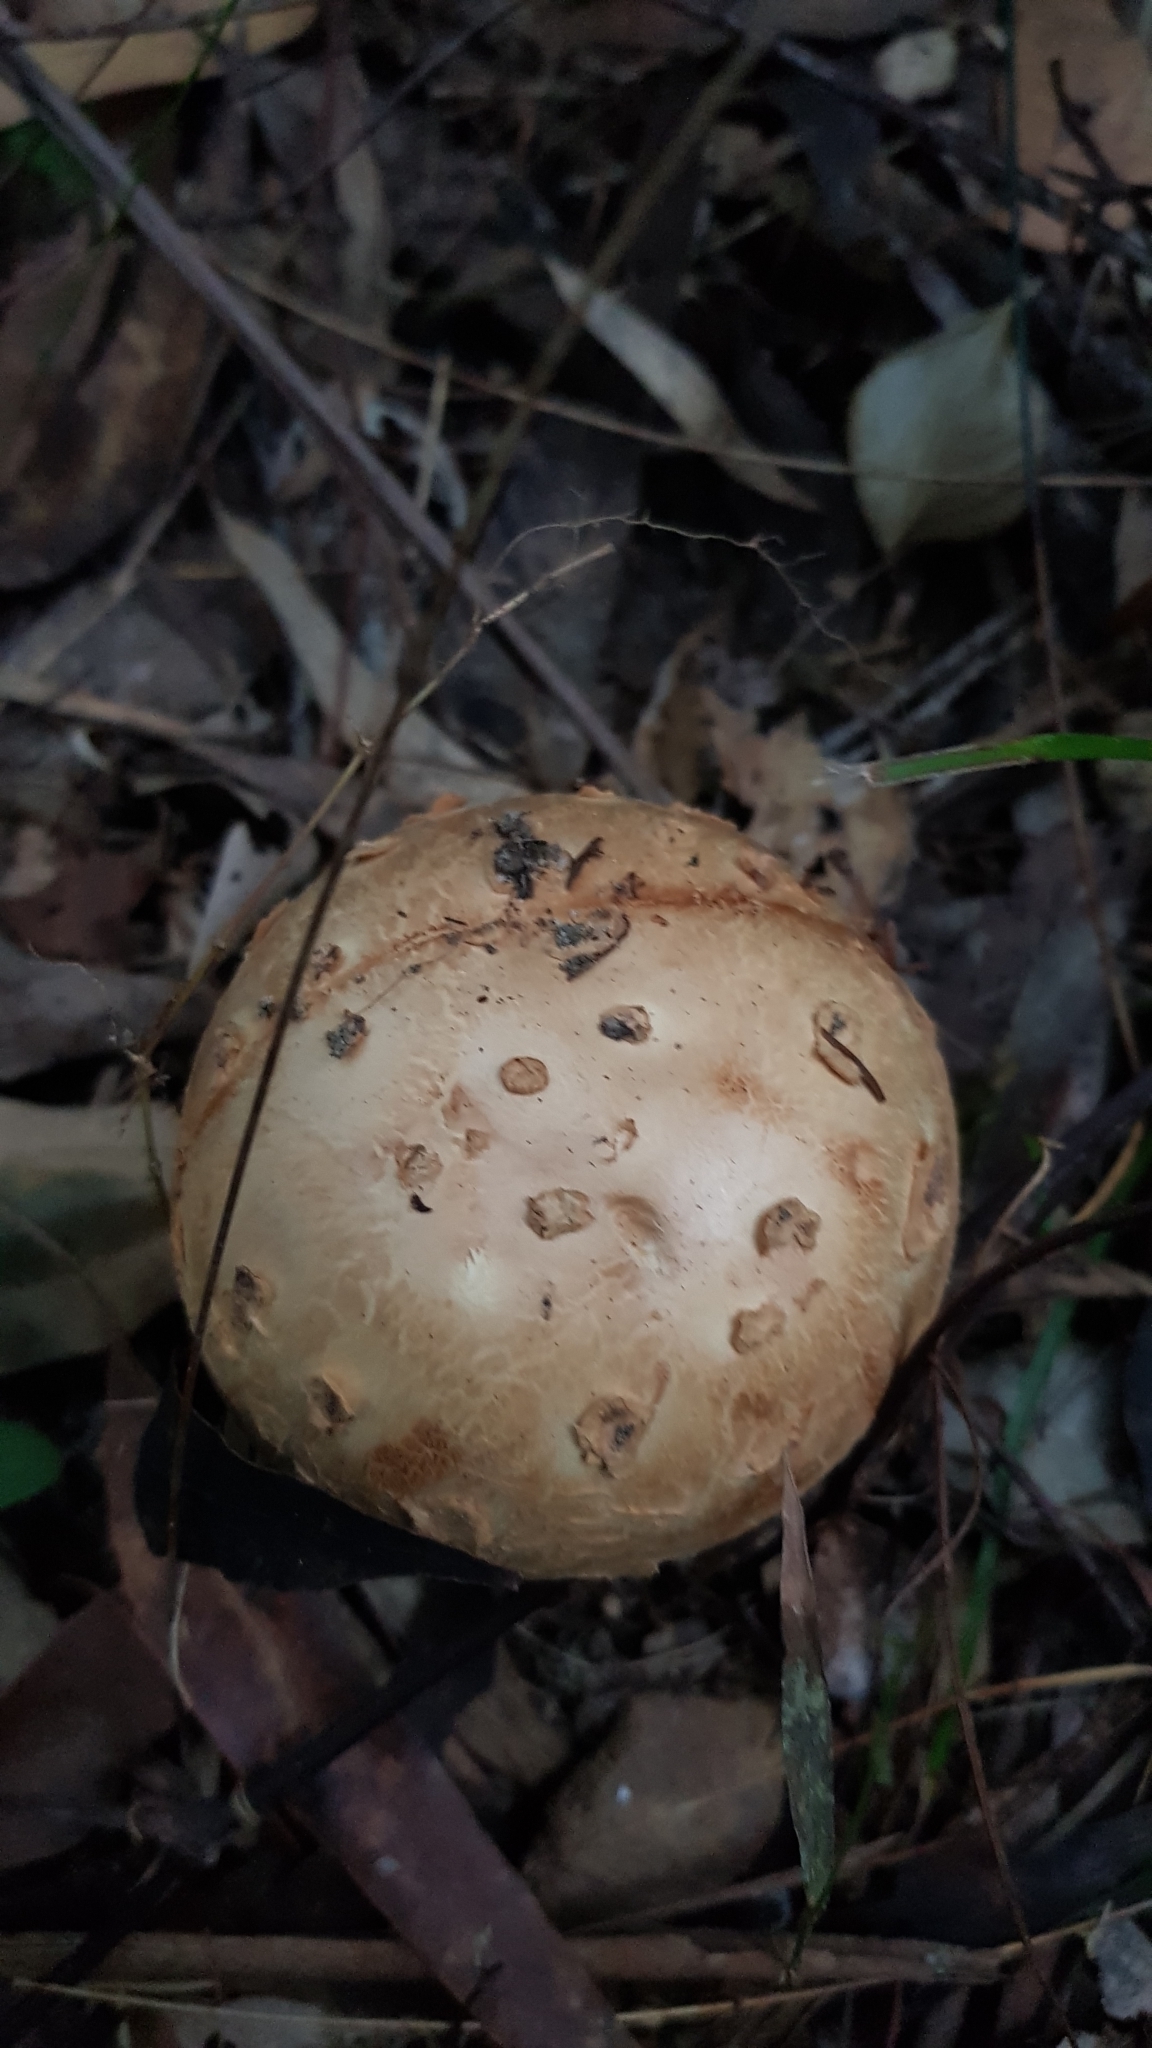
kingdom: Fungi
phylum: Basidiomycota
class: Agaricomycetes
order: Agaricales
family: Amanitaceae
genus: Amanita
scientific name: Amanita ochrophylla
